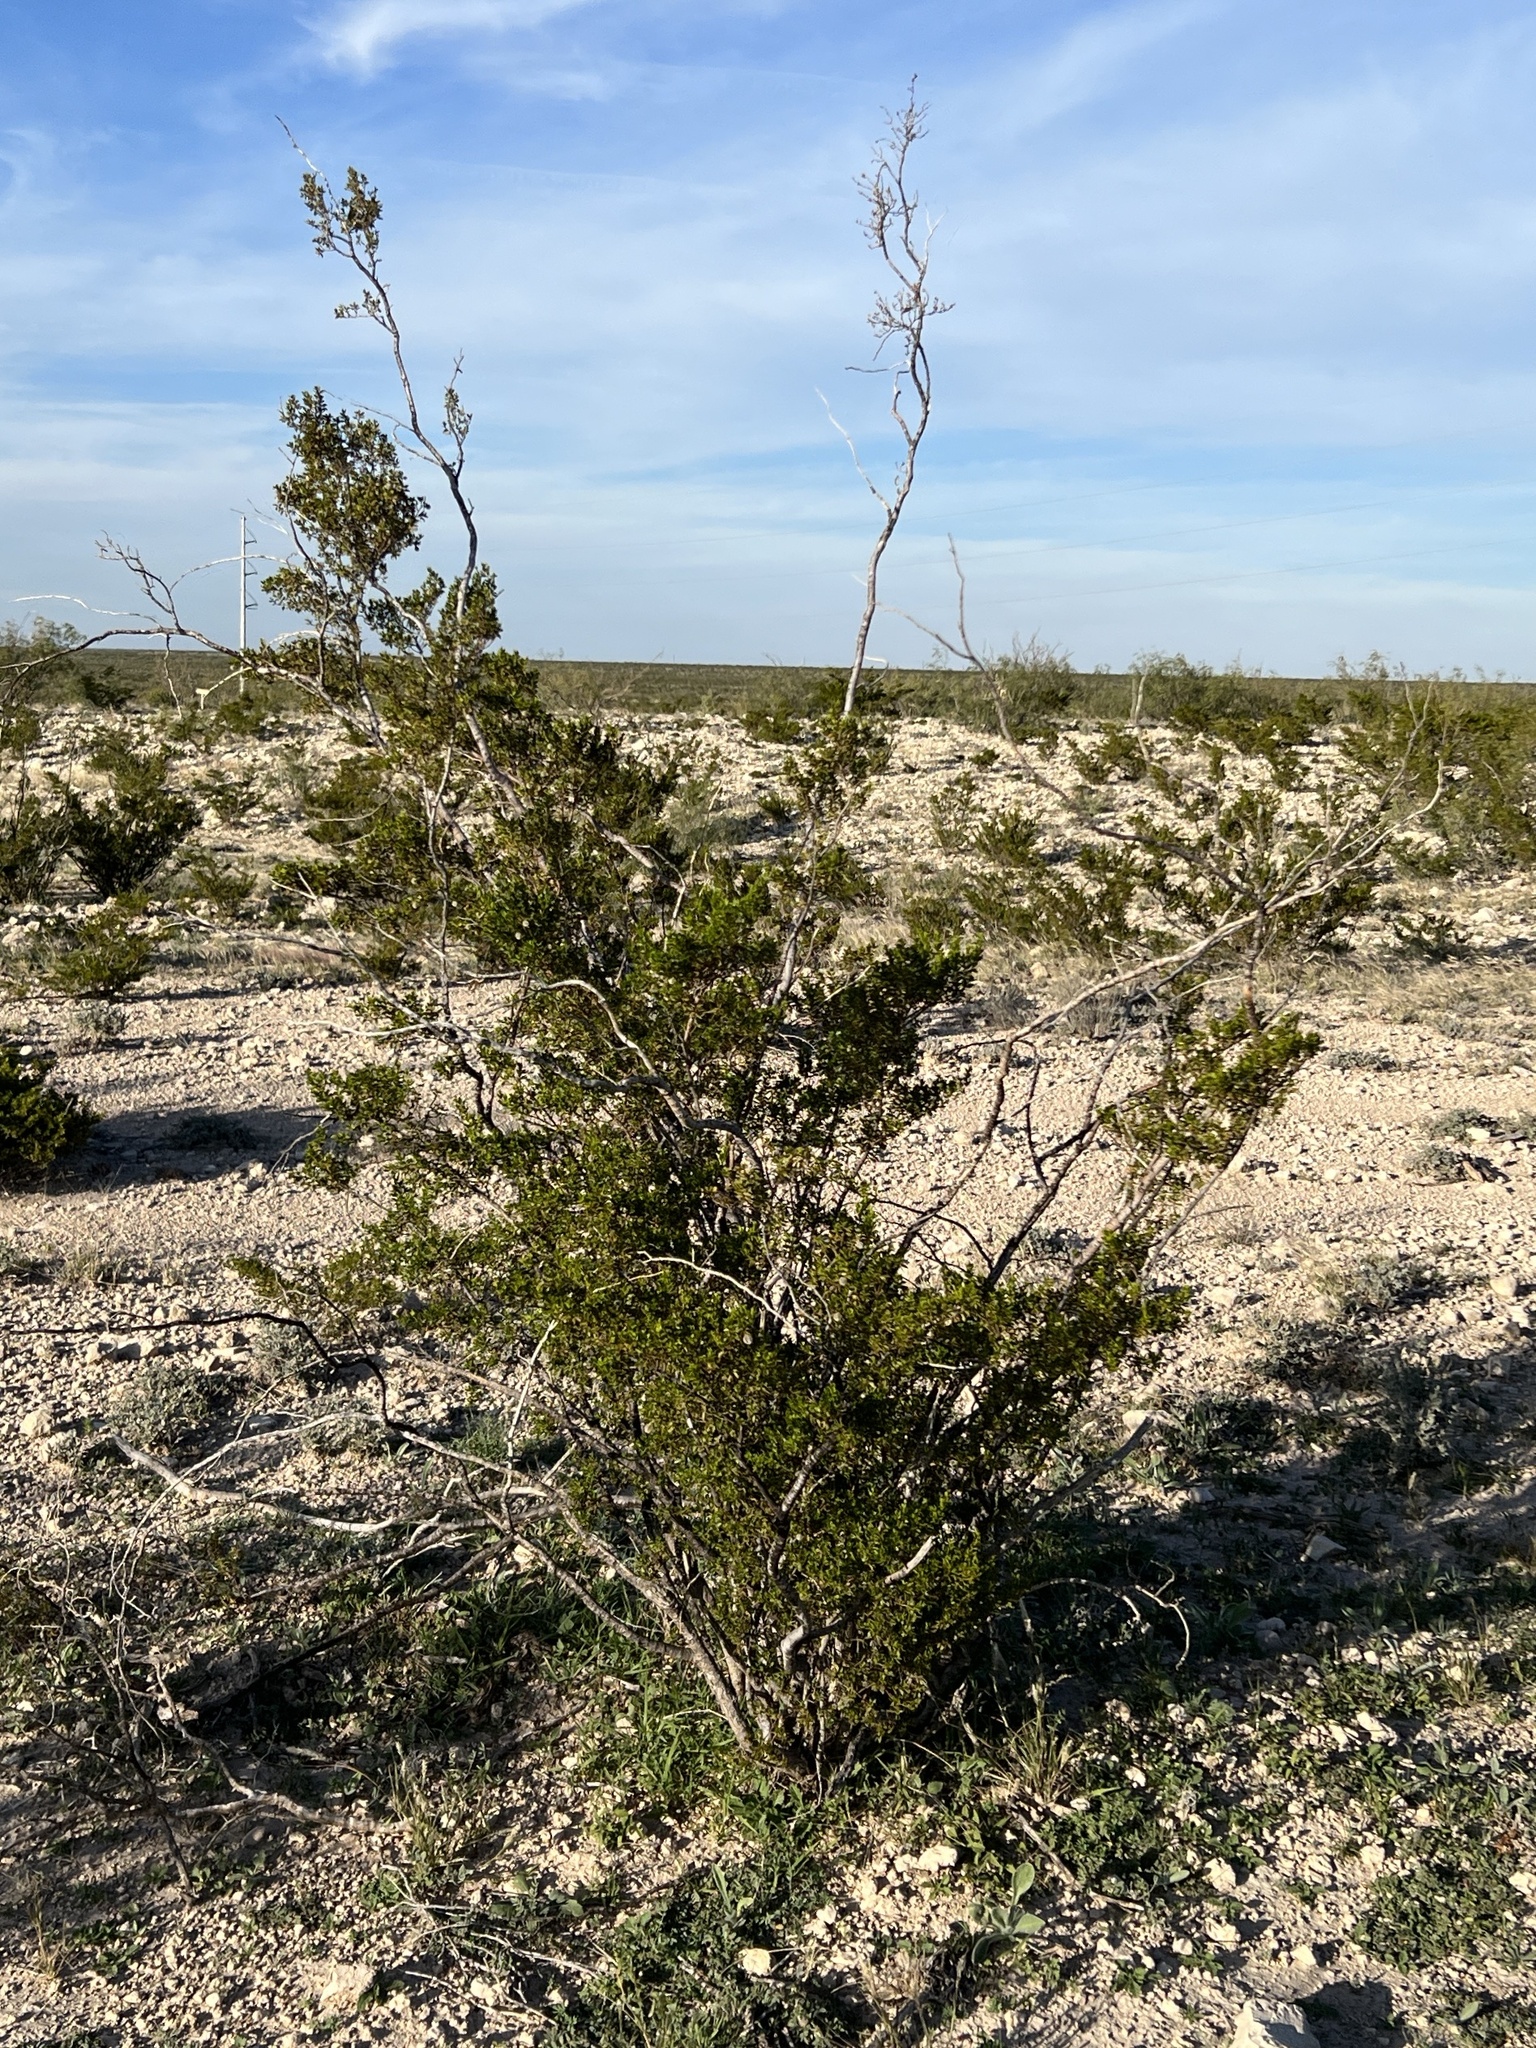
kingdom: Plantae
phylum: Tracheophyta
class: Magnoliopsida
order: Zygophyllales
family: Zygophyllaceae
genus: Larrea
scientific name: Larrea tridentata
